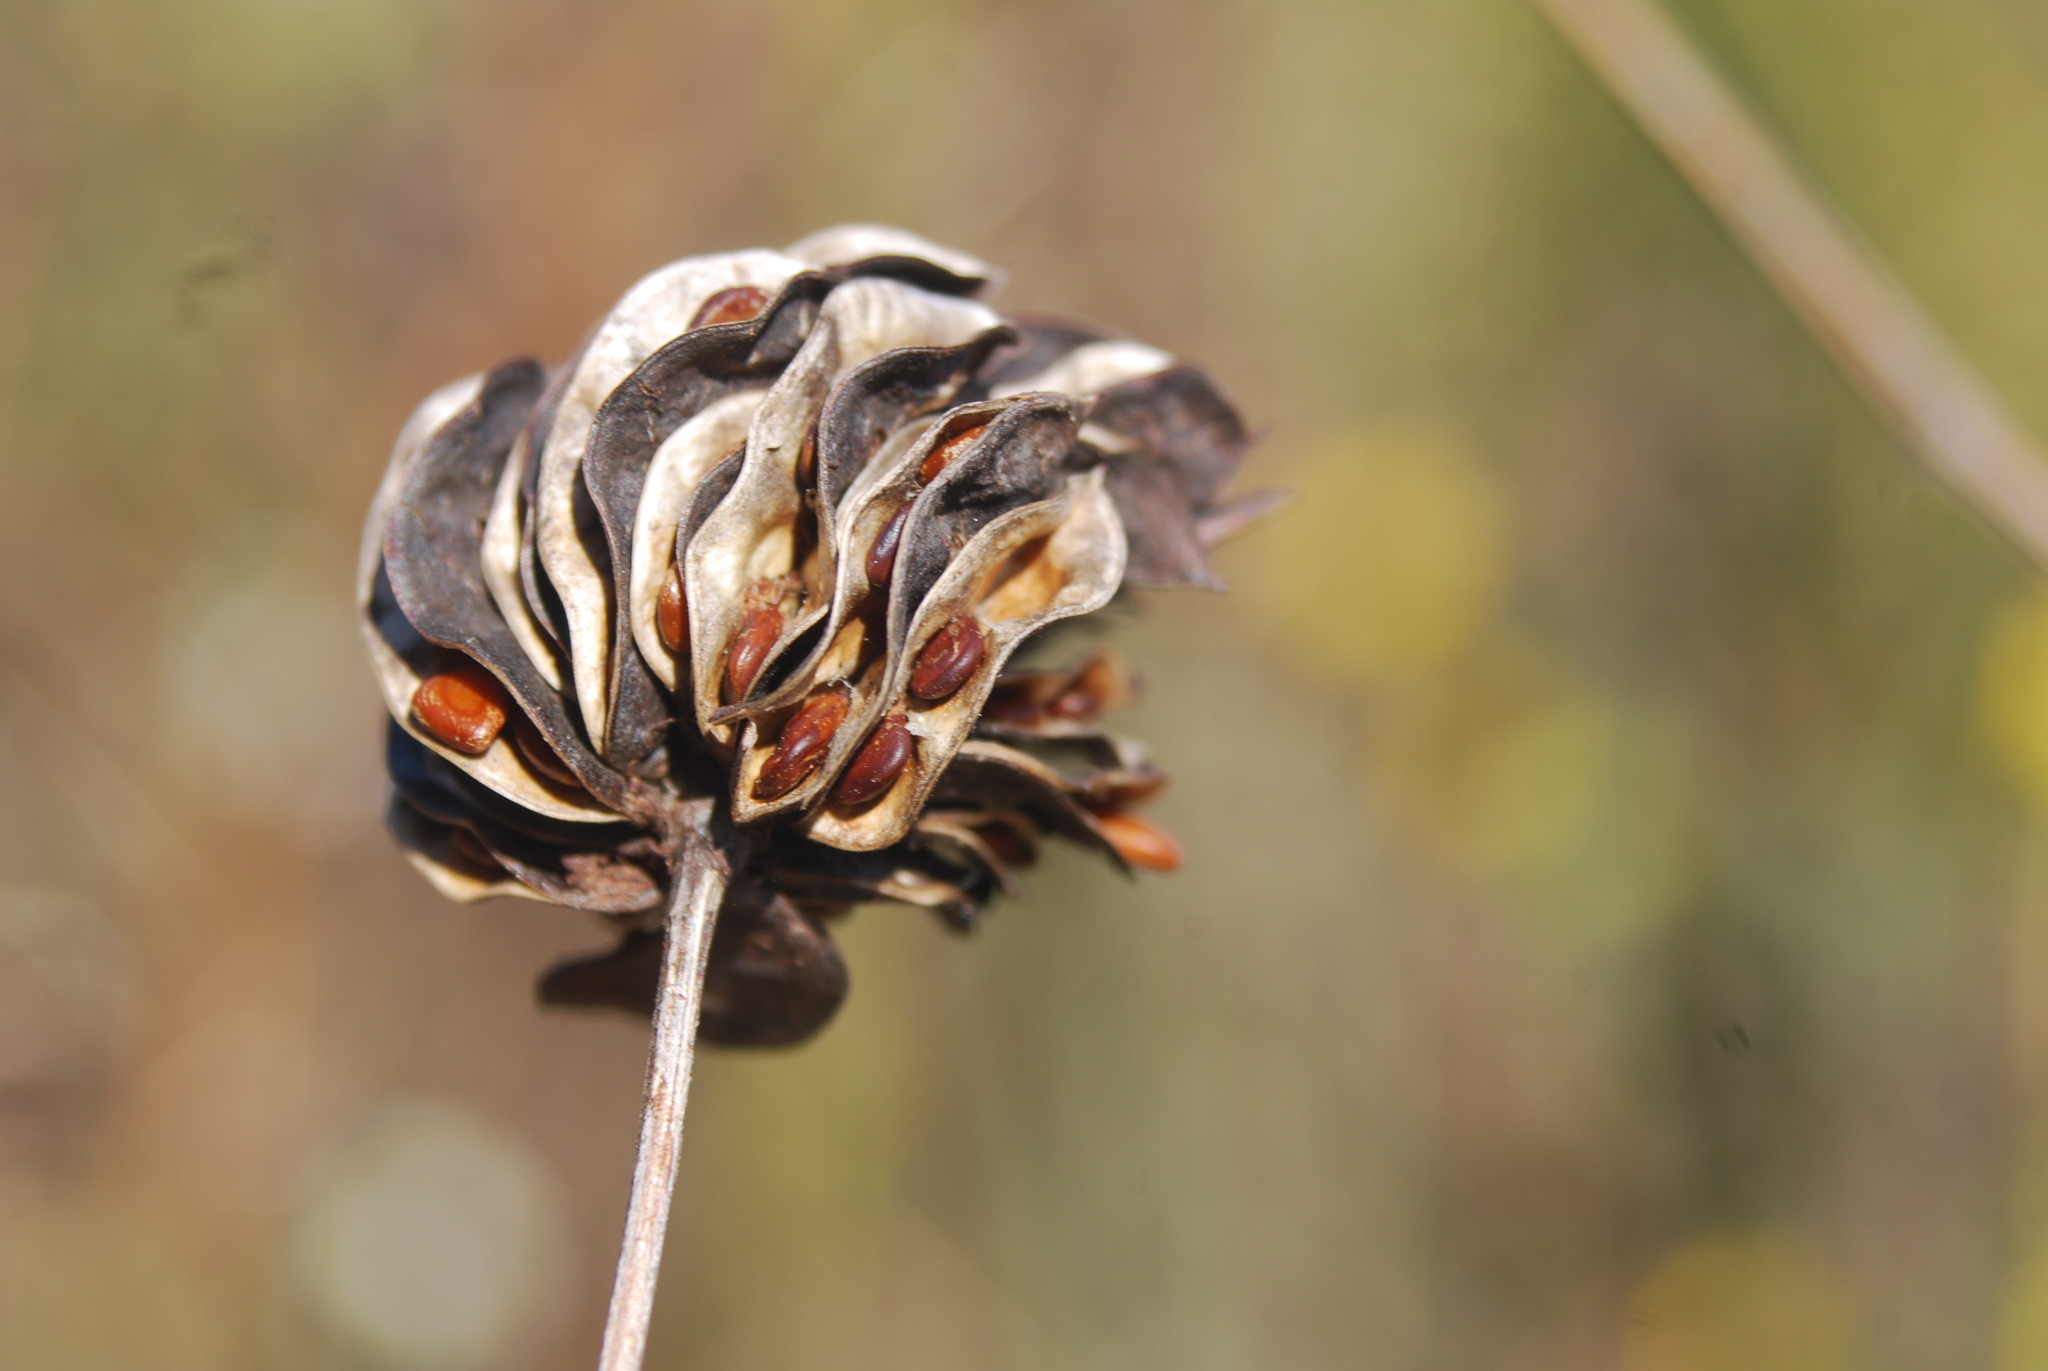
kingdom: Plantae
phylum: Tracheophyta
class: Magnoliopsida
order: Fabales
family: Fabaceae
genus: Desmanthus
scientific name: Desmanthus illinoensis
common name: Illinois bundle-flower
